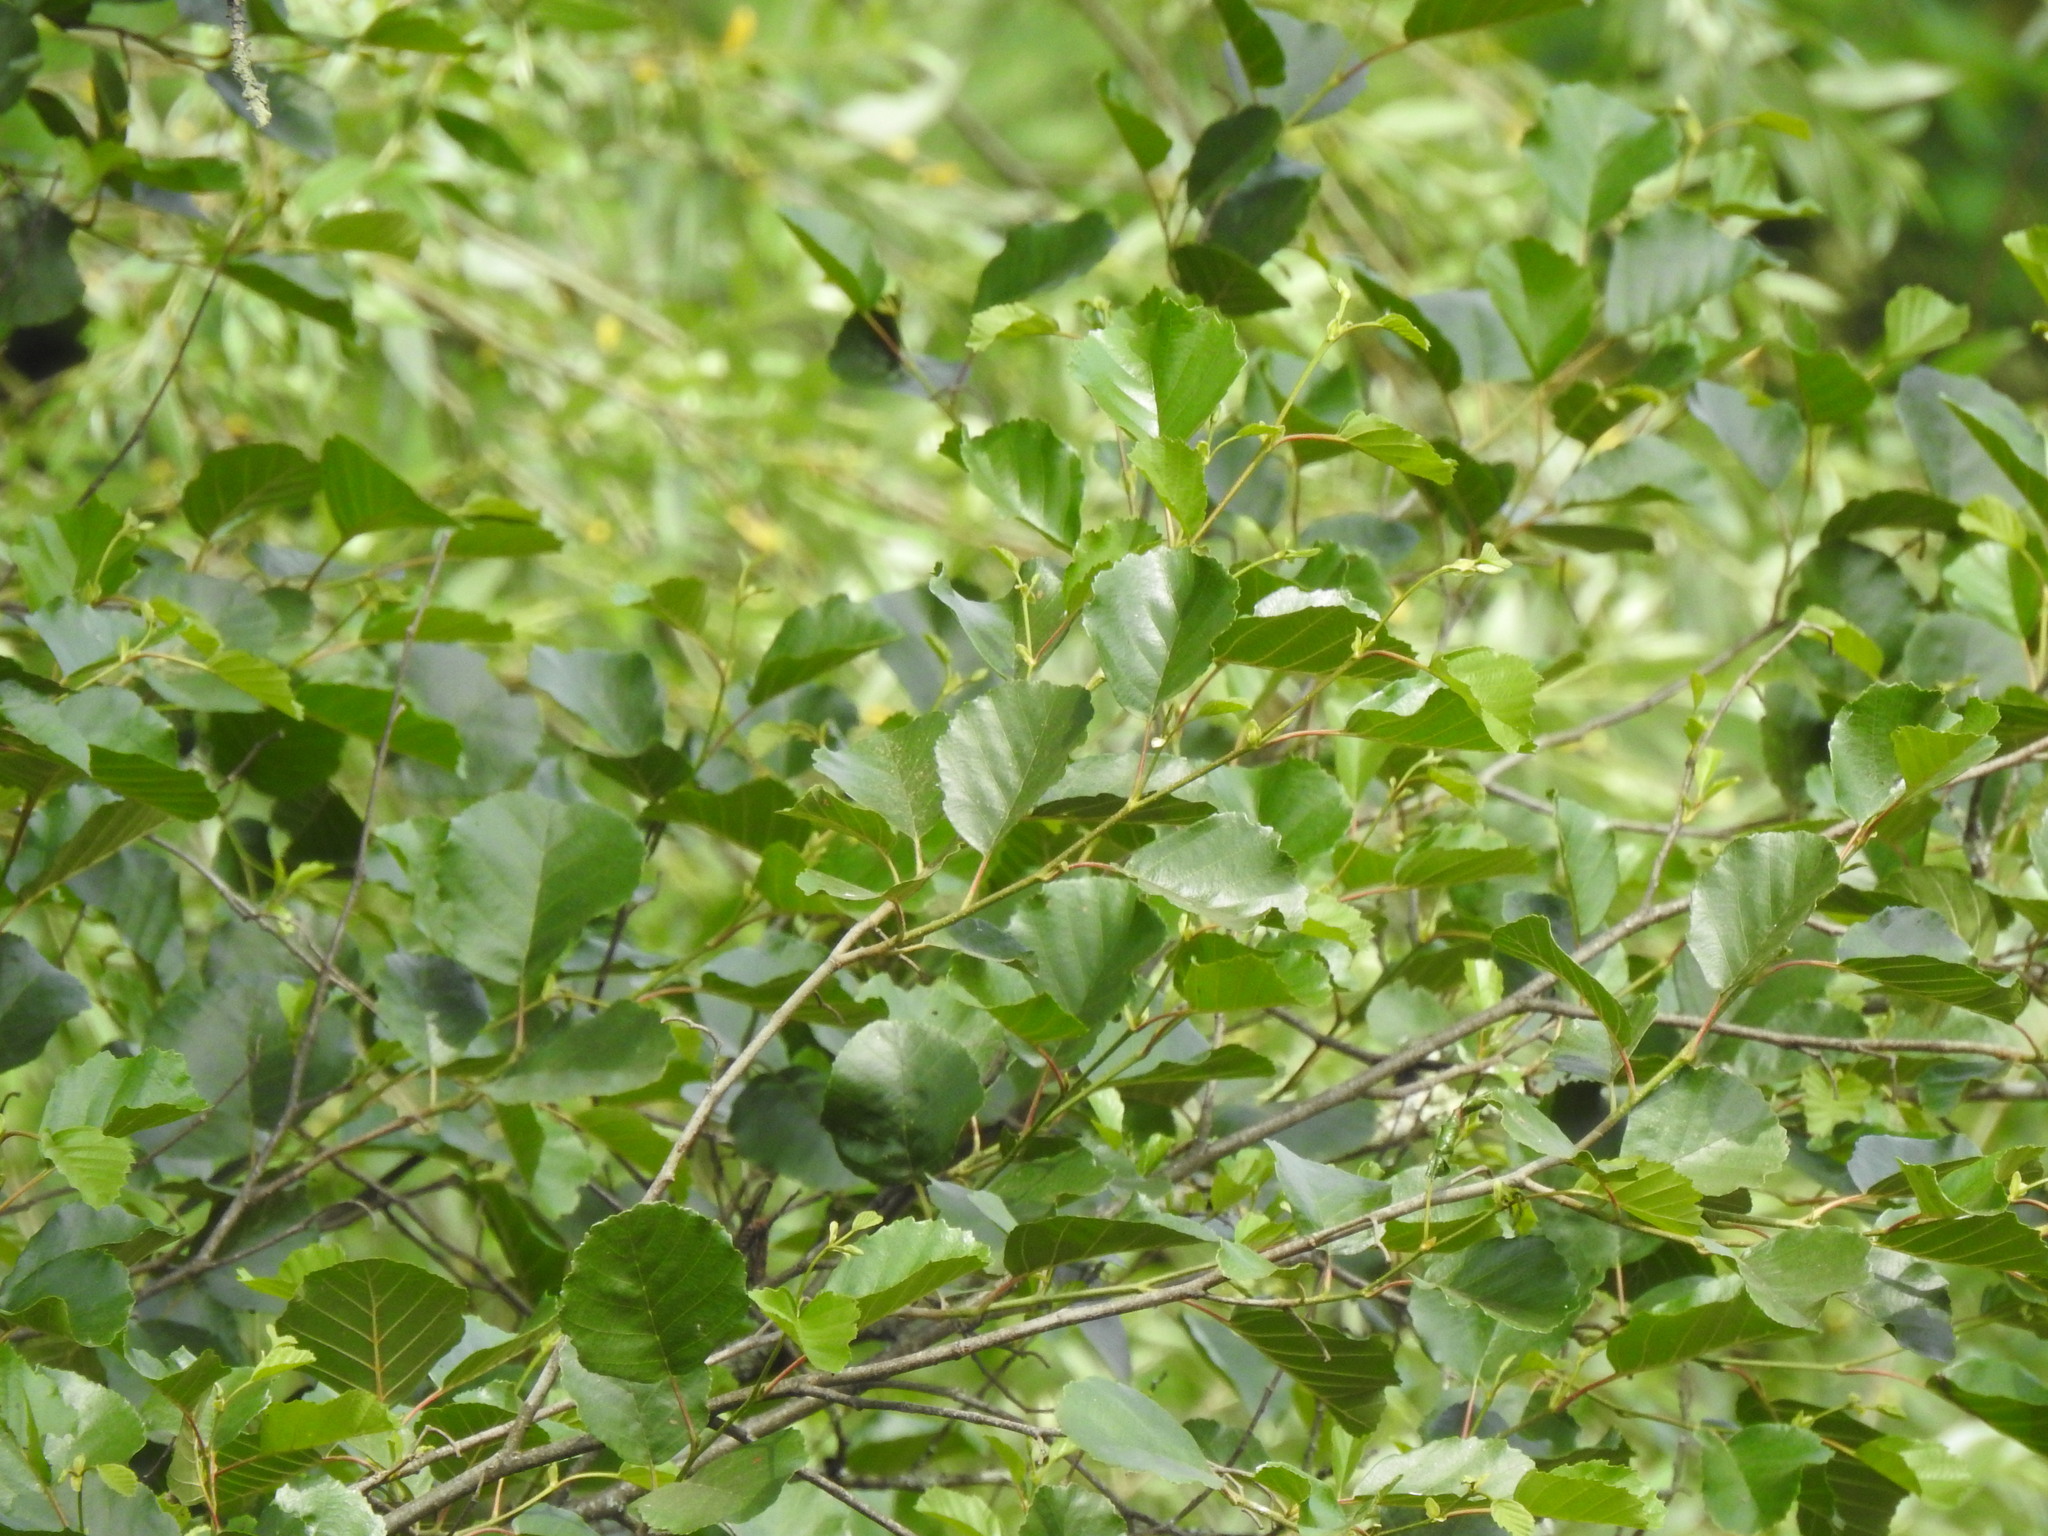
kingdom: Plantae
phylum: Tracheophyta
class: Magnoliopsida
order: Fagales
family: Betulaceae
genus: Alnus
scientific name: Alnus lusitanica
